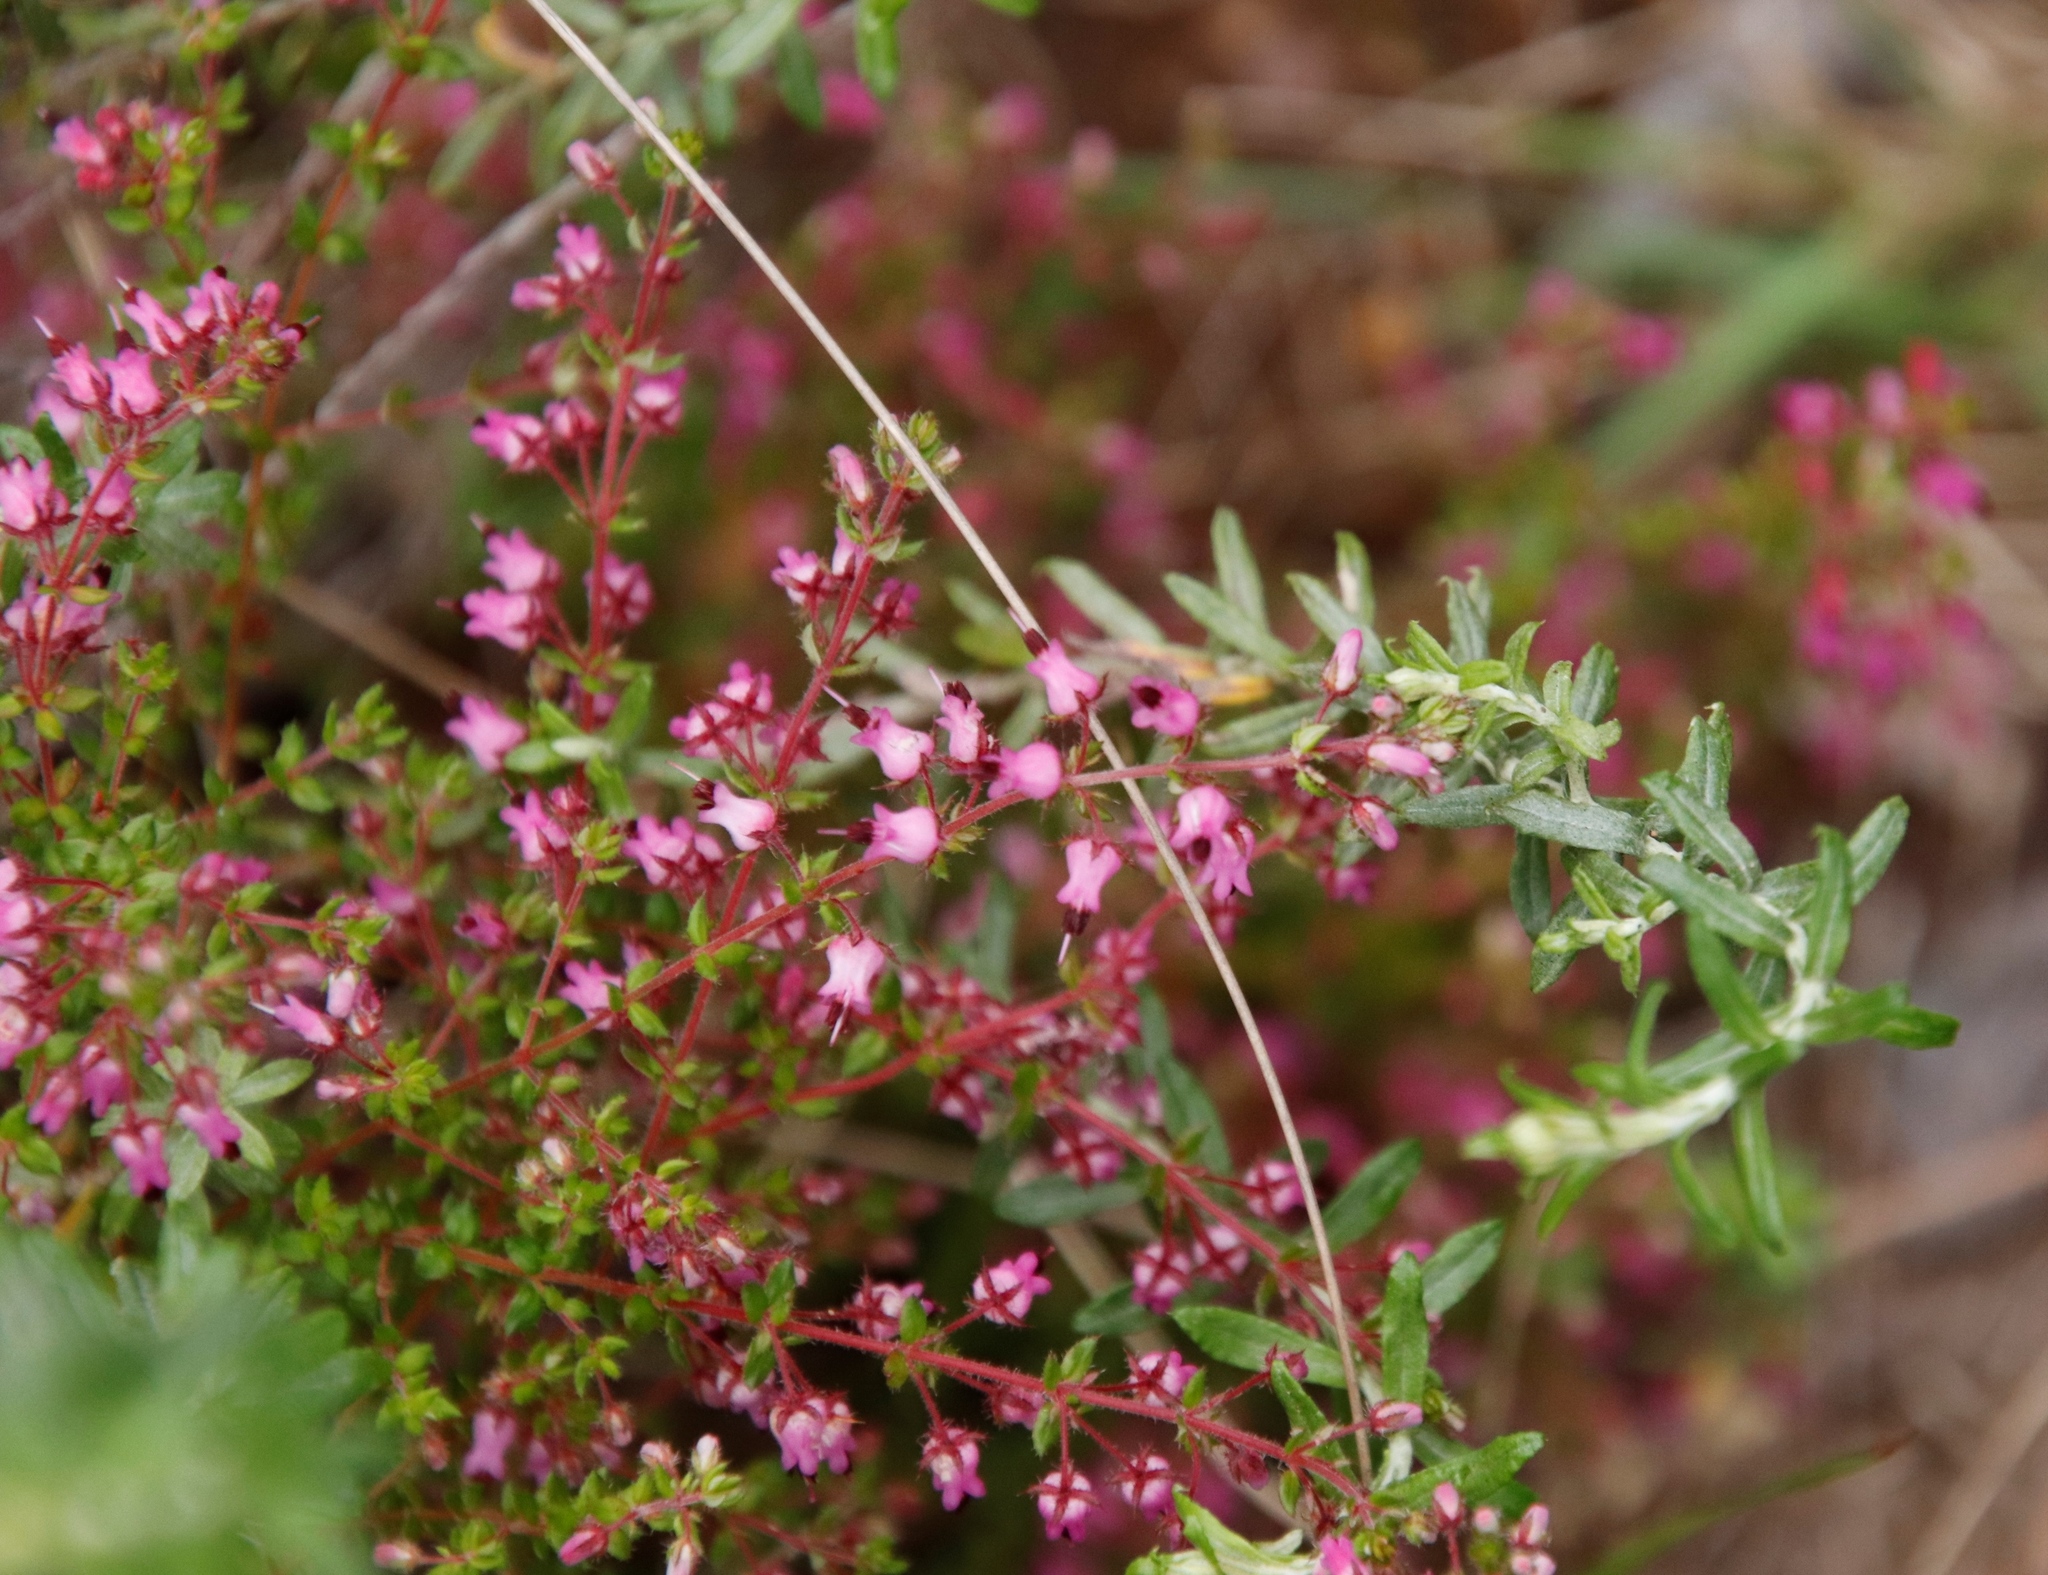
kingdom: Plantae
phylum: Tracheophyta
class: Magnoliopsida
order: Ericales
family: Ericaceae
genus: Erica
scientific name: Erica thimifolia
